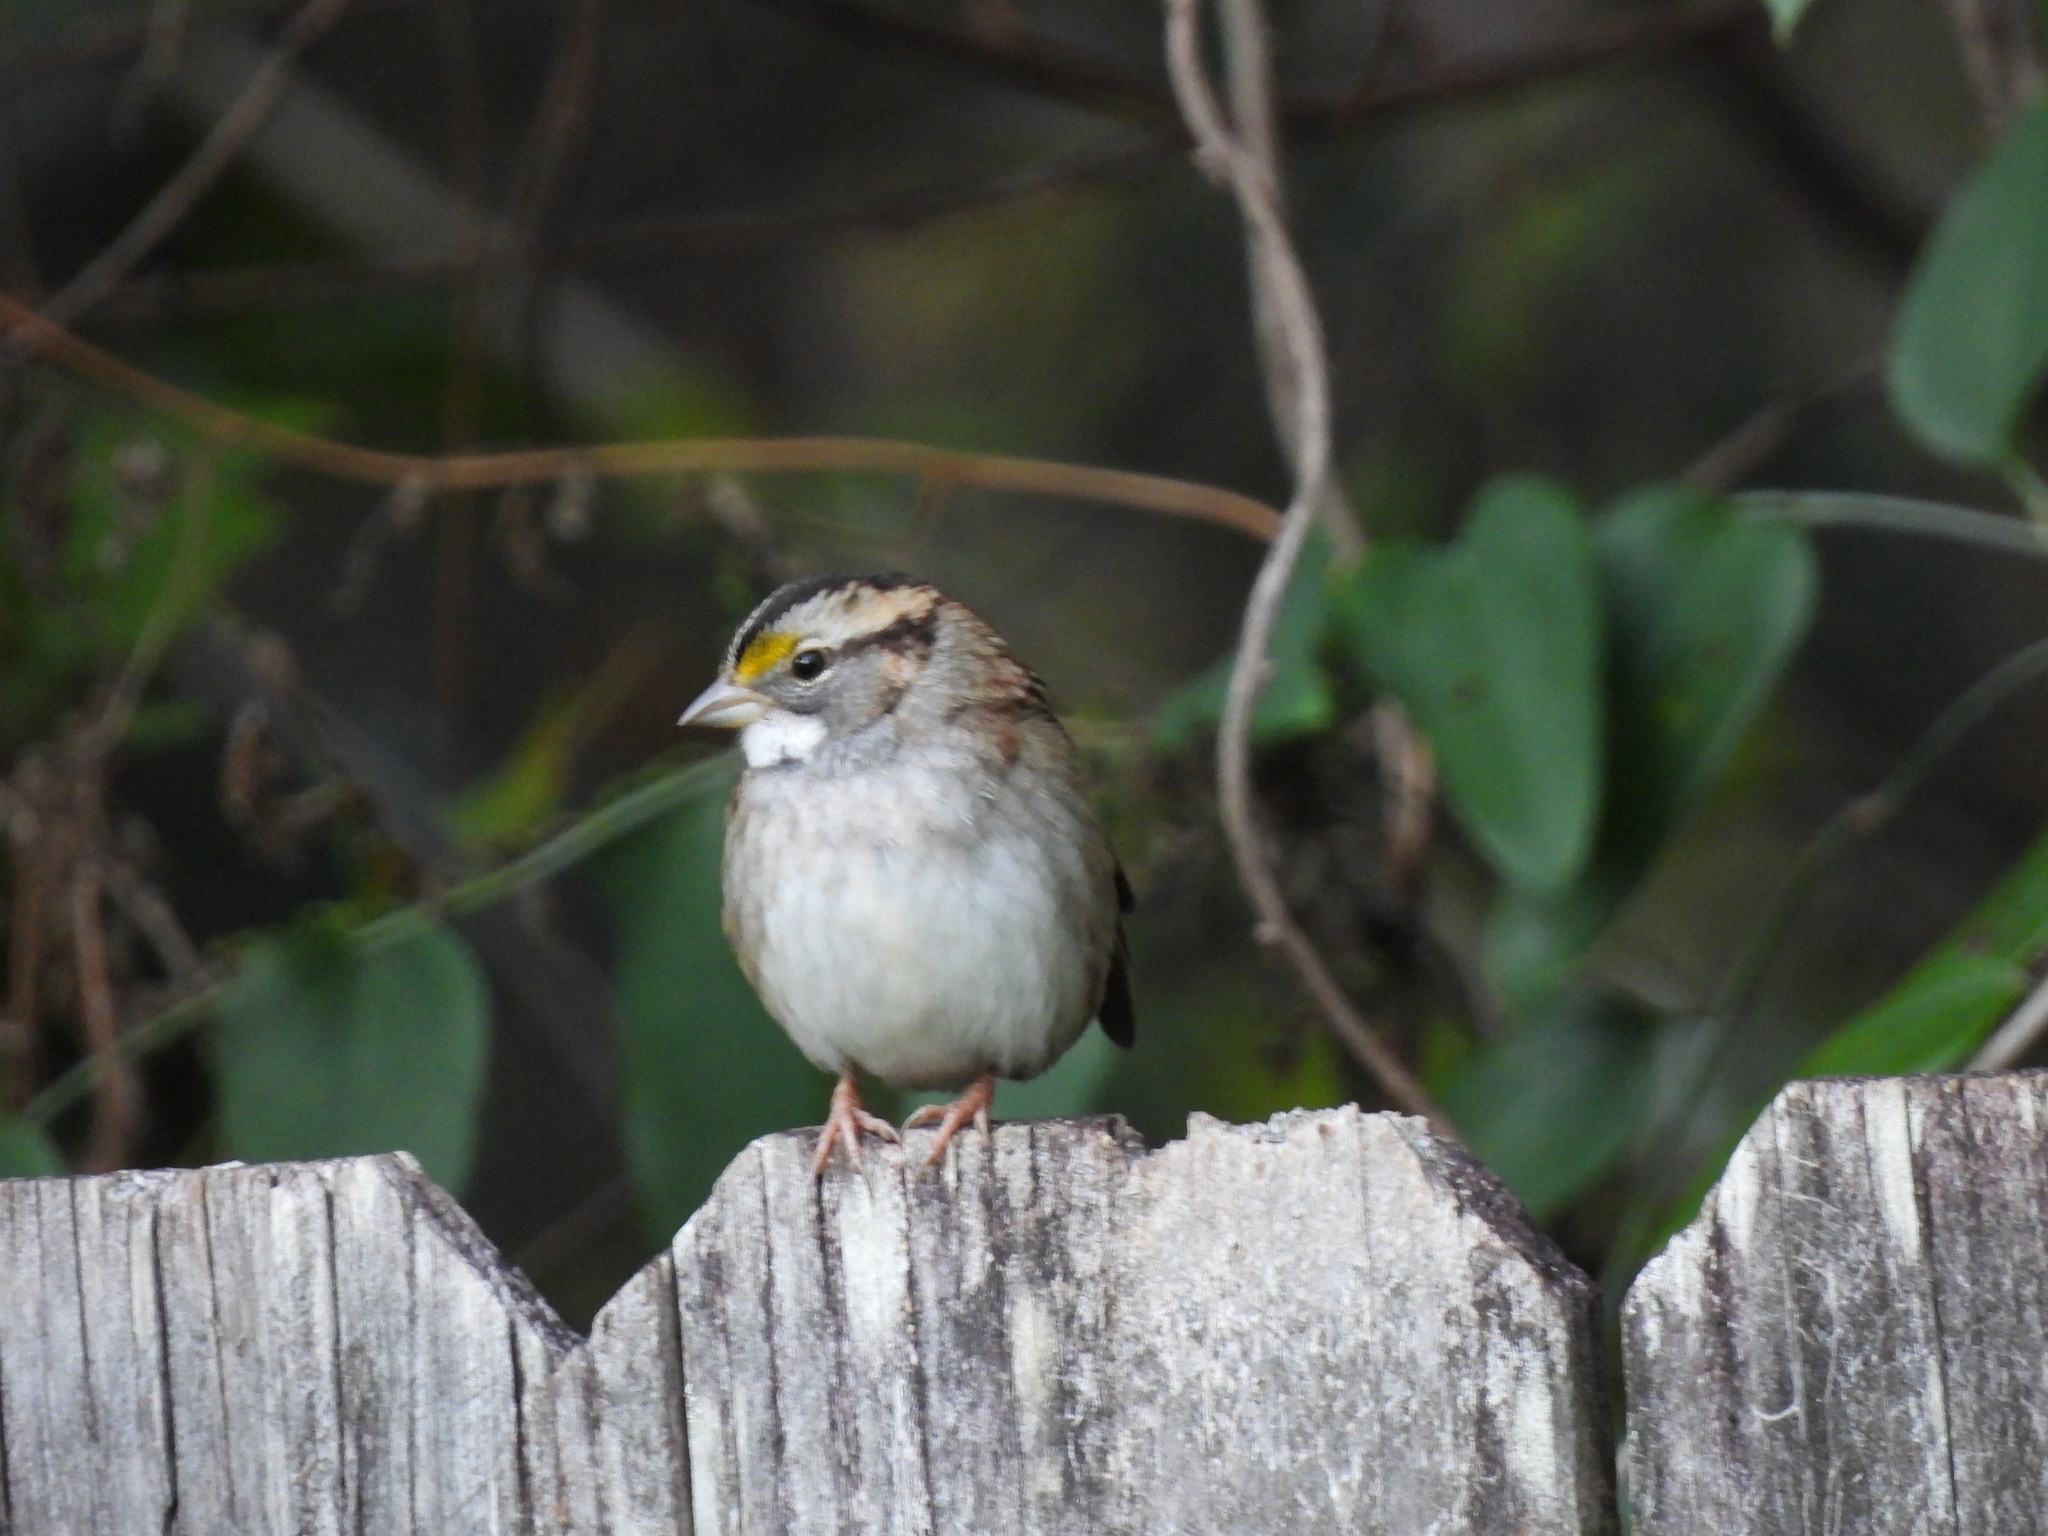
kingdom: Animalia
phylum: Chordata
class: Aves
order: Passeriformes
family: Passerellidae
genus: Zonotrichia
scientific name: Zonotrichia albicollis
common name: White-throated sparrow
